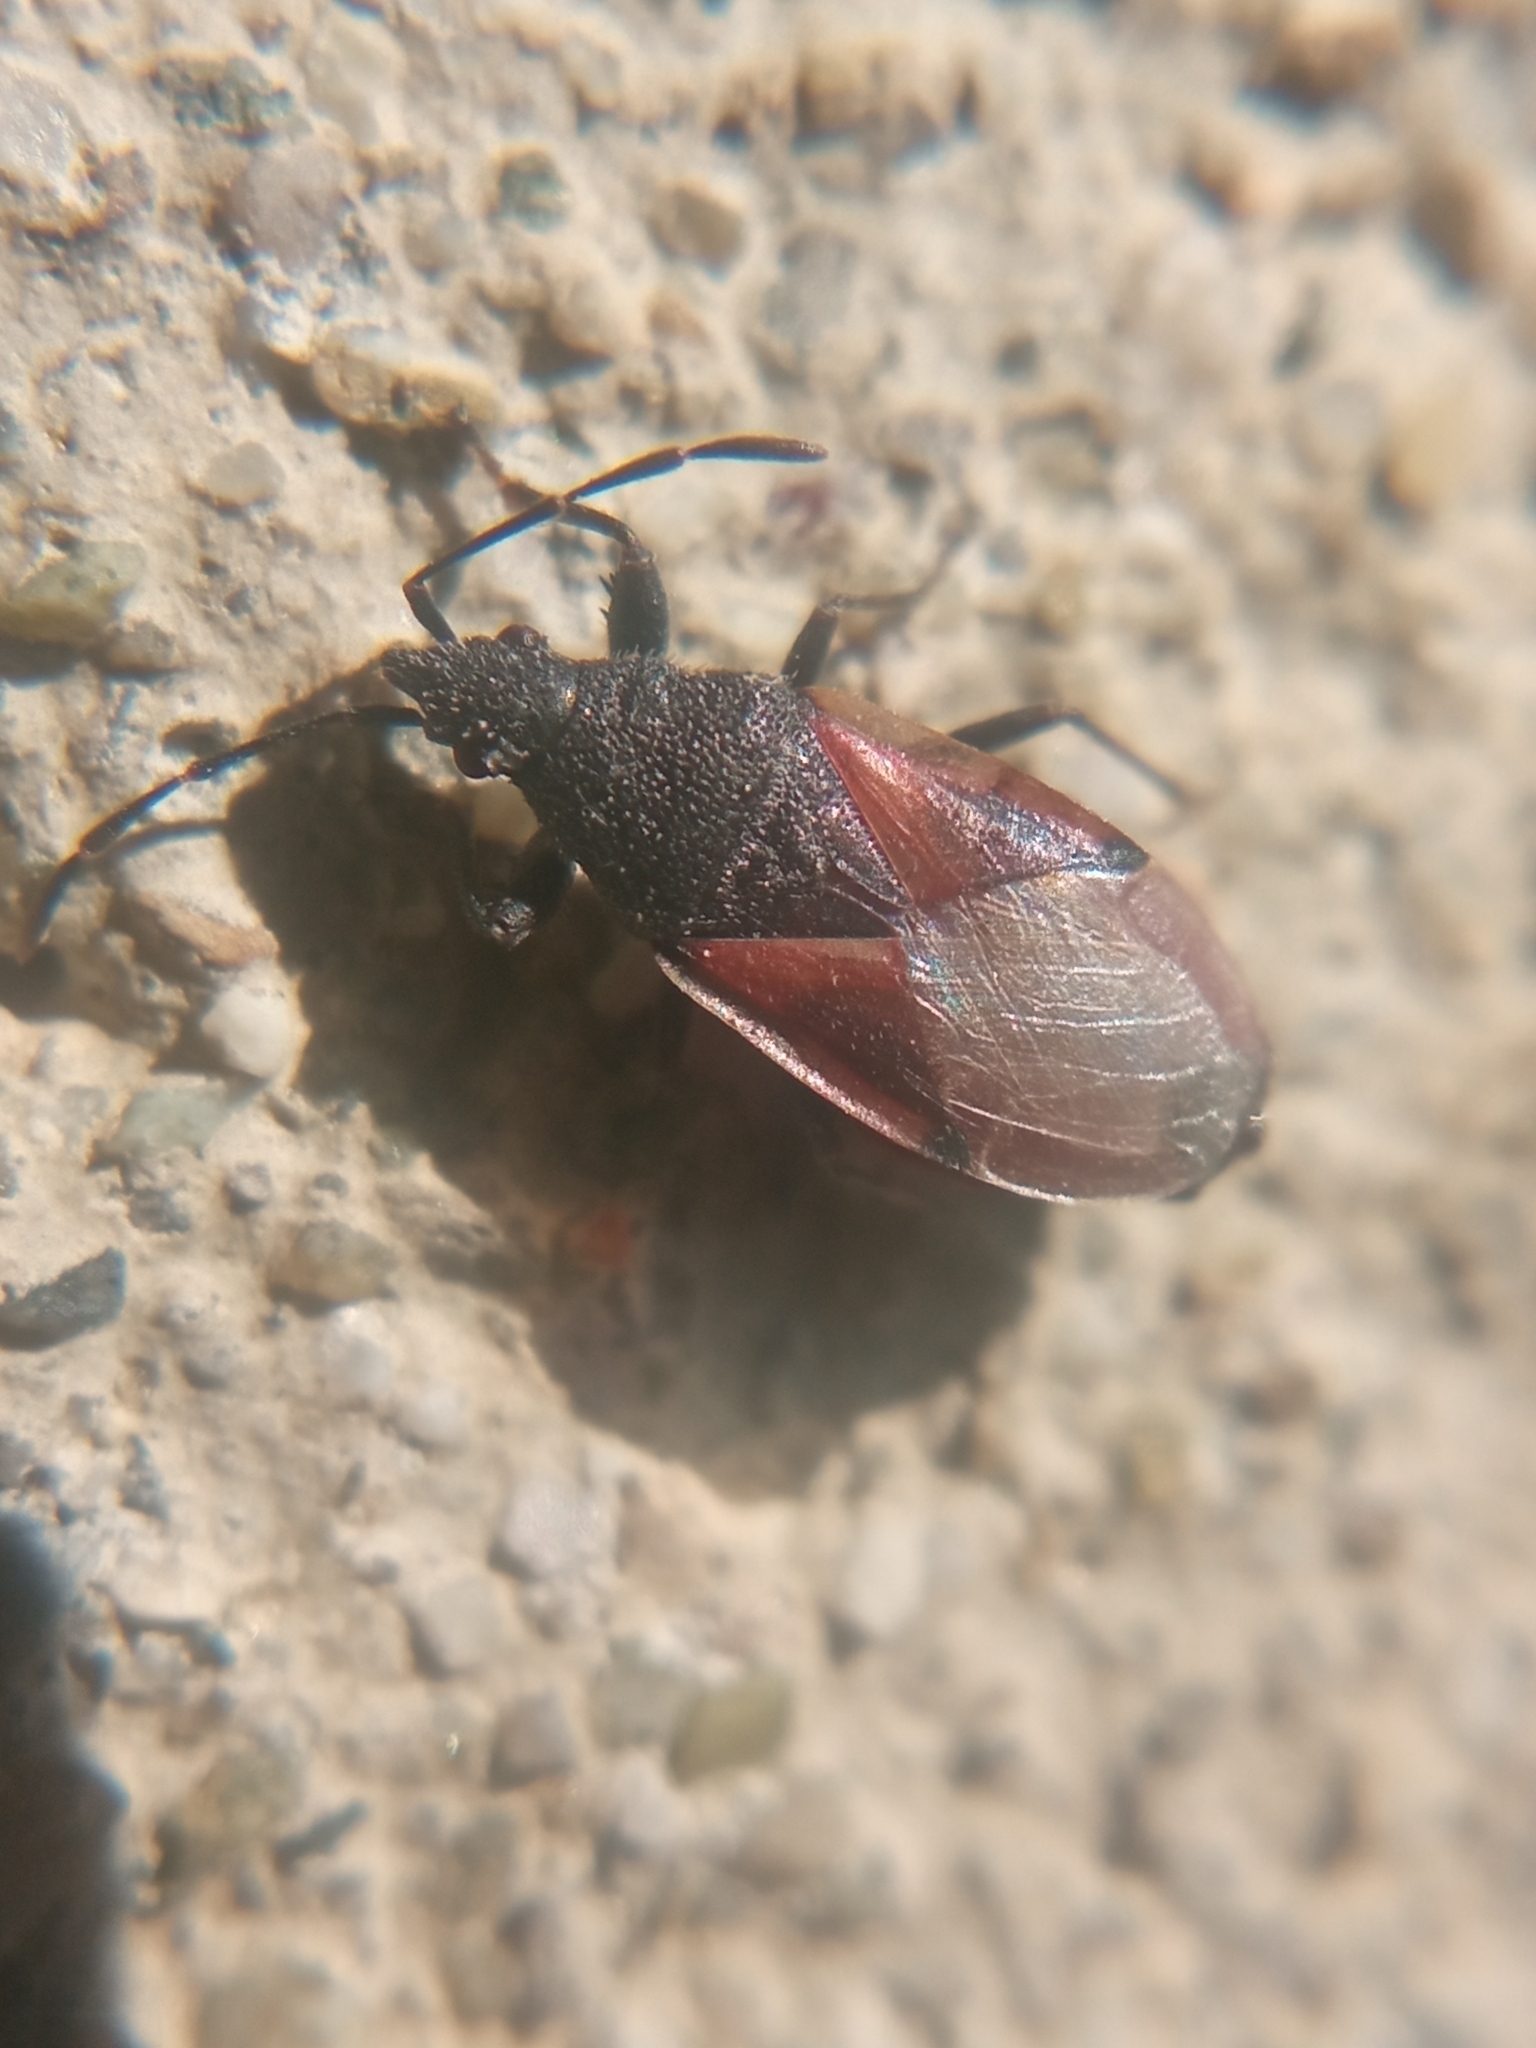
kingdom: Animalia
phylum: Arthropoda
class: Insecta
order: Hemiptera
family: Oxycarenidae
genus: Oxycarenus
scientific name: Oxycarenus lavaterae
